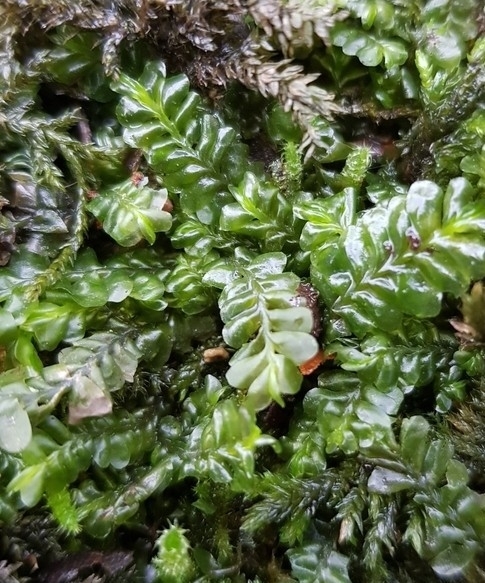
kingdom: Plantae
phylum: Marchantiophyta
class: Jungermanniopsida
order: Jungermanniales
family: Plagiochilaceae
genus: Plagiochila
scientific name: Plagiochila asplenioides
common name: Greater featherwort
